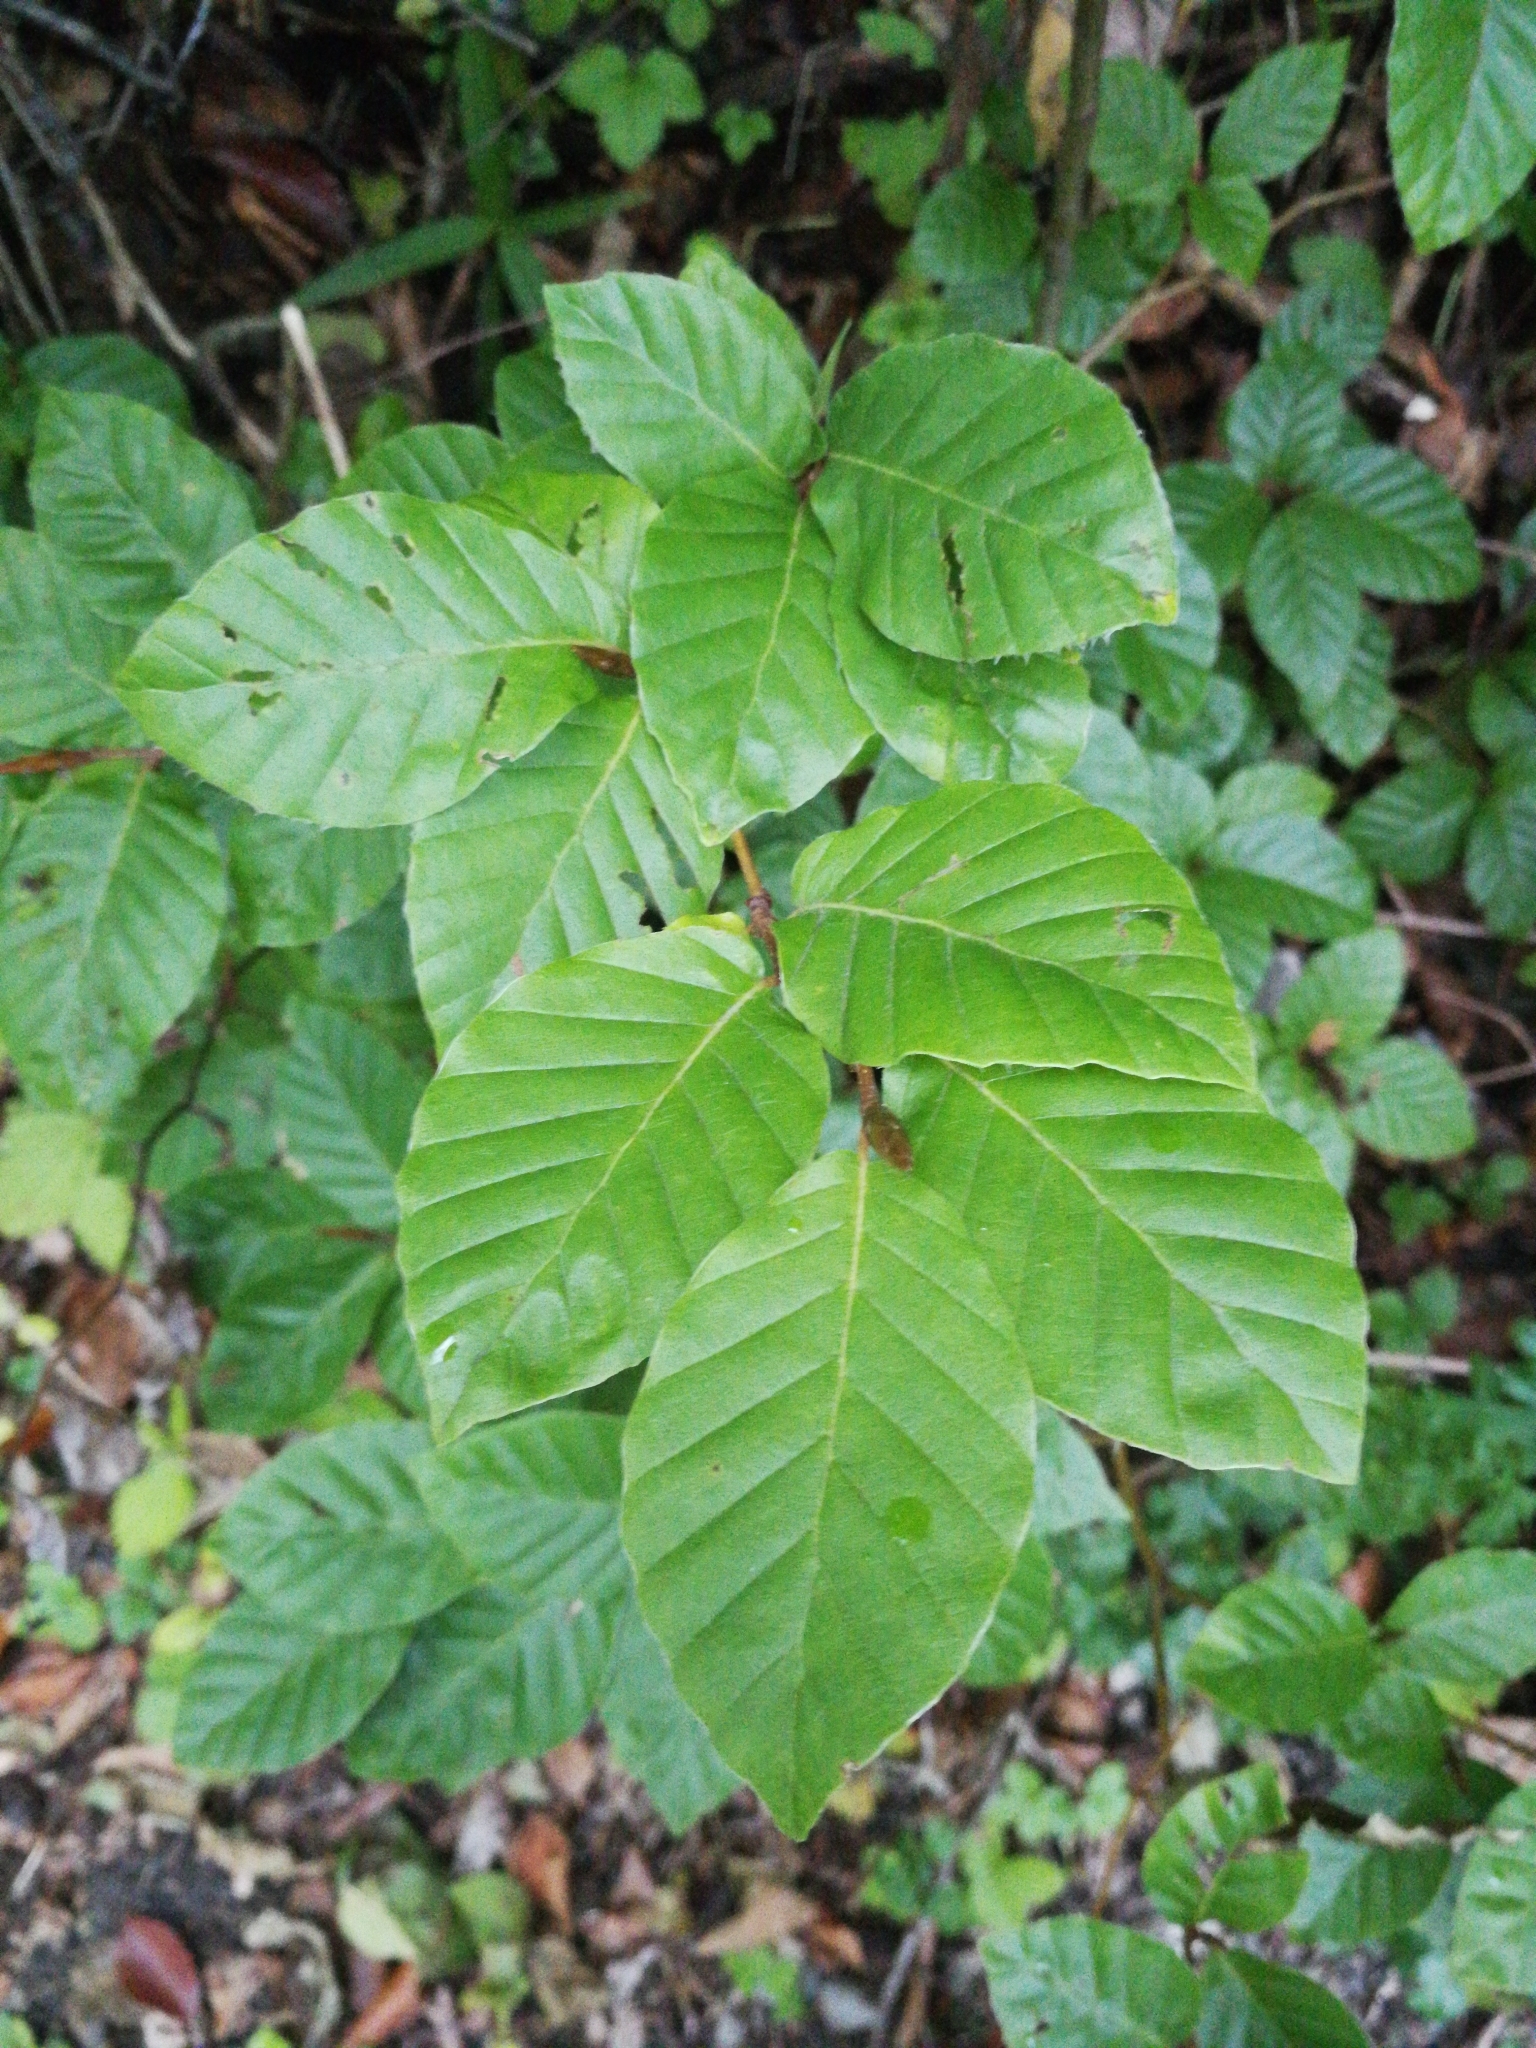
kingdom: Plantae
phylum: Tracheophyta
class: Magnoliopsida
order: Fagales
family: Fagaceae
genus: Fagus
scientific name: Fagus sylvatica
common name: Beech
